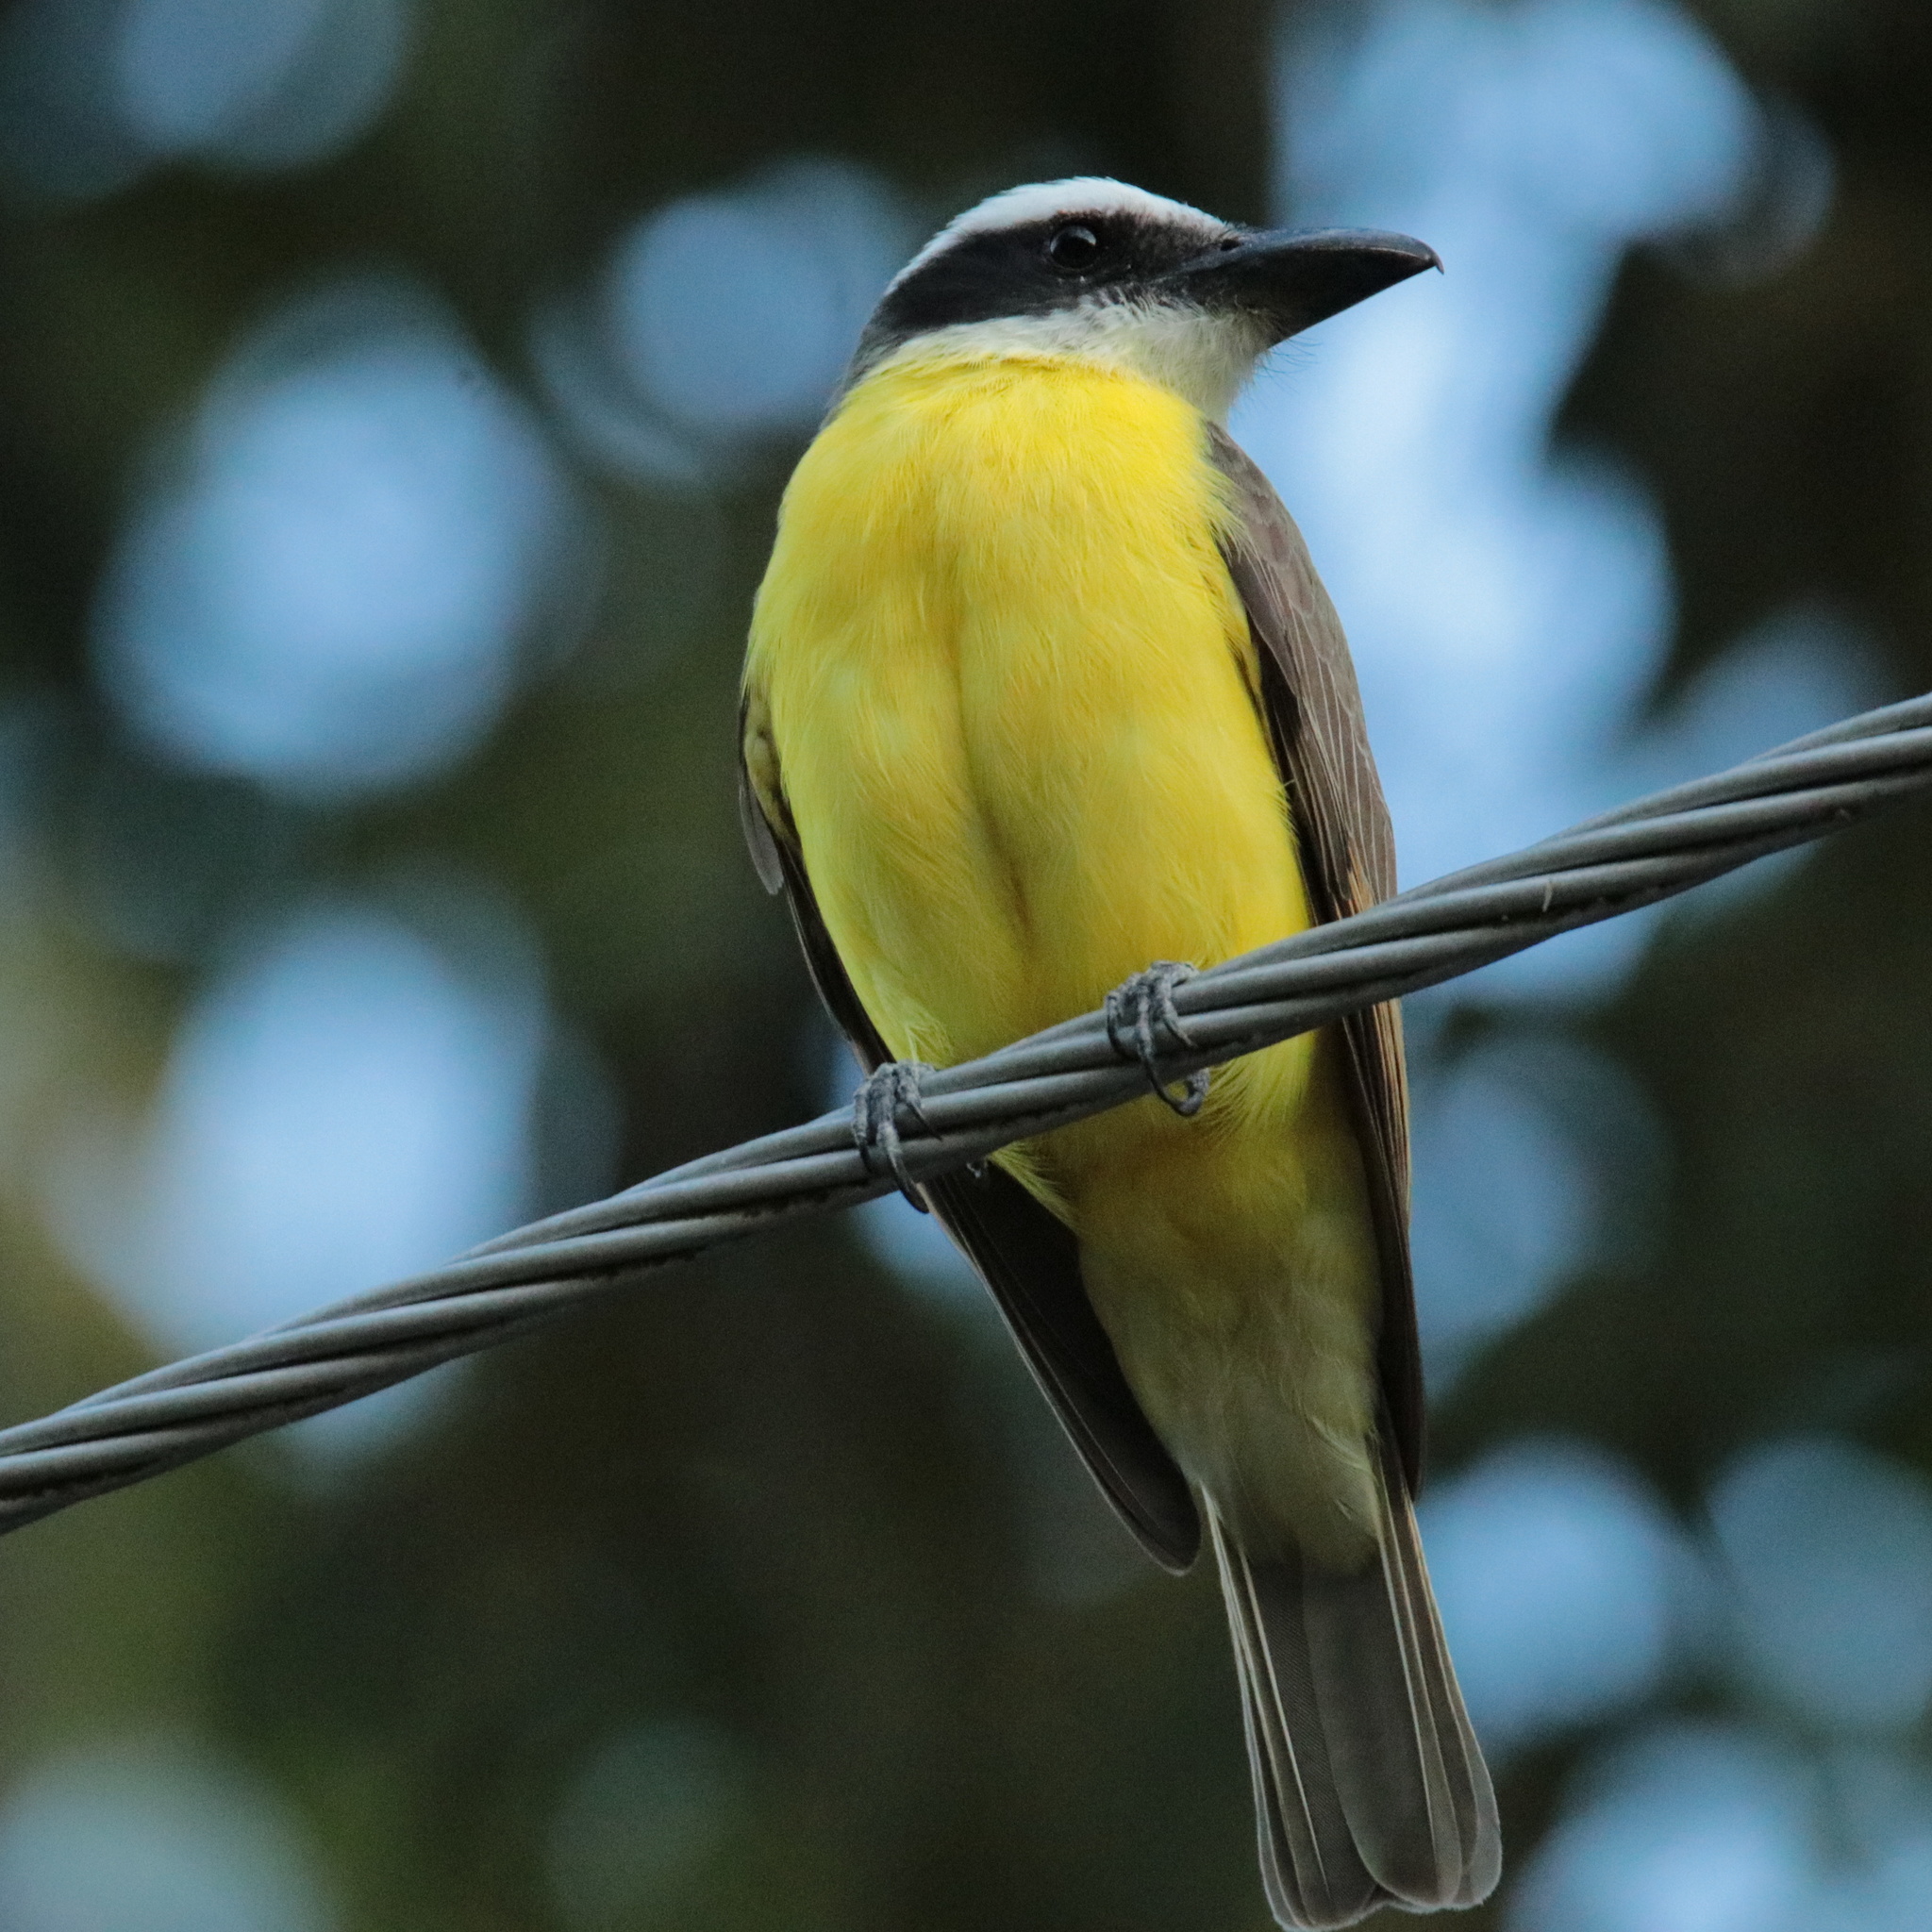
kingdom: Animalia
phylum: Chordata
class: Aves
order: Passeriformes
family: Tyrannidae
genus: Megarynchus
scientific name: Megarynchus pitangua
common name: Boat-billed flycatcher
